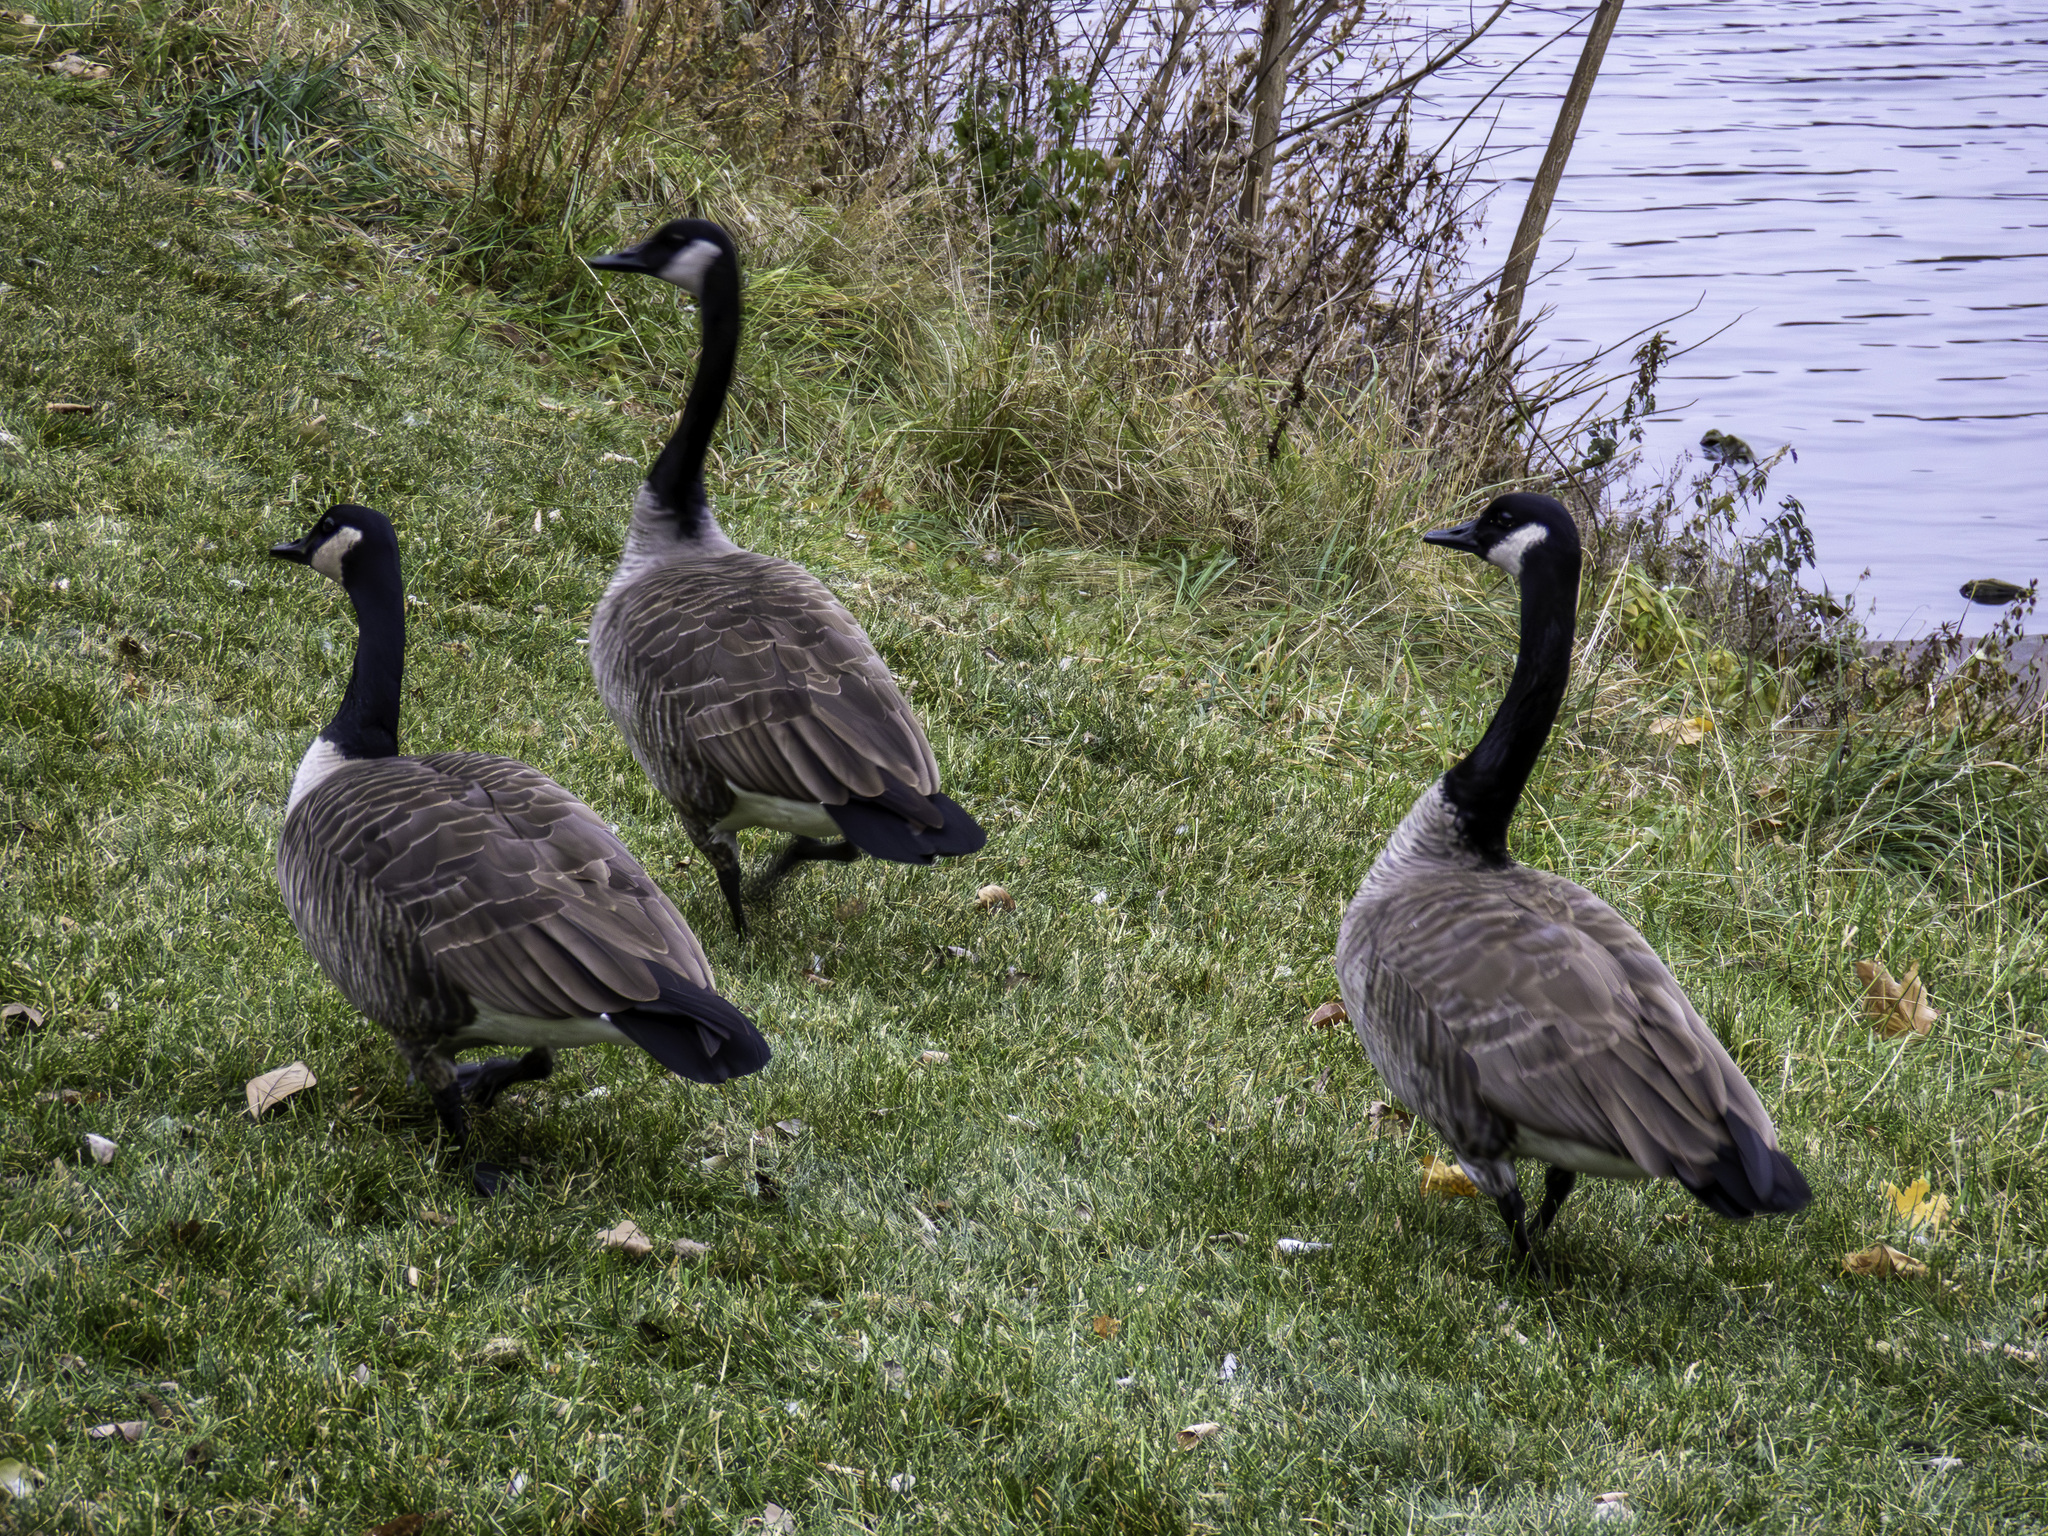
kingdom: Animalia
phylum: Chordata
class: Aves
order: Anseriformes
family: Anatidae
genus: Branta
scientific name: Branta canadensis
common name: Canada goose
